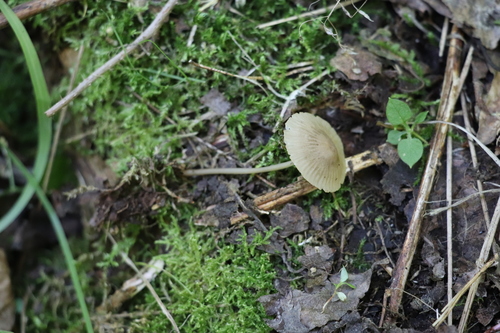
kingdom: Fungi
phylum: Basidiomycota
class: Agaricomycetes
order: Agaricales
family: Mycenaceae
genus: Mycena
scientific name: Mycena viridimarginata
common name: Olive edge bonnet
